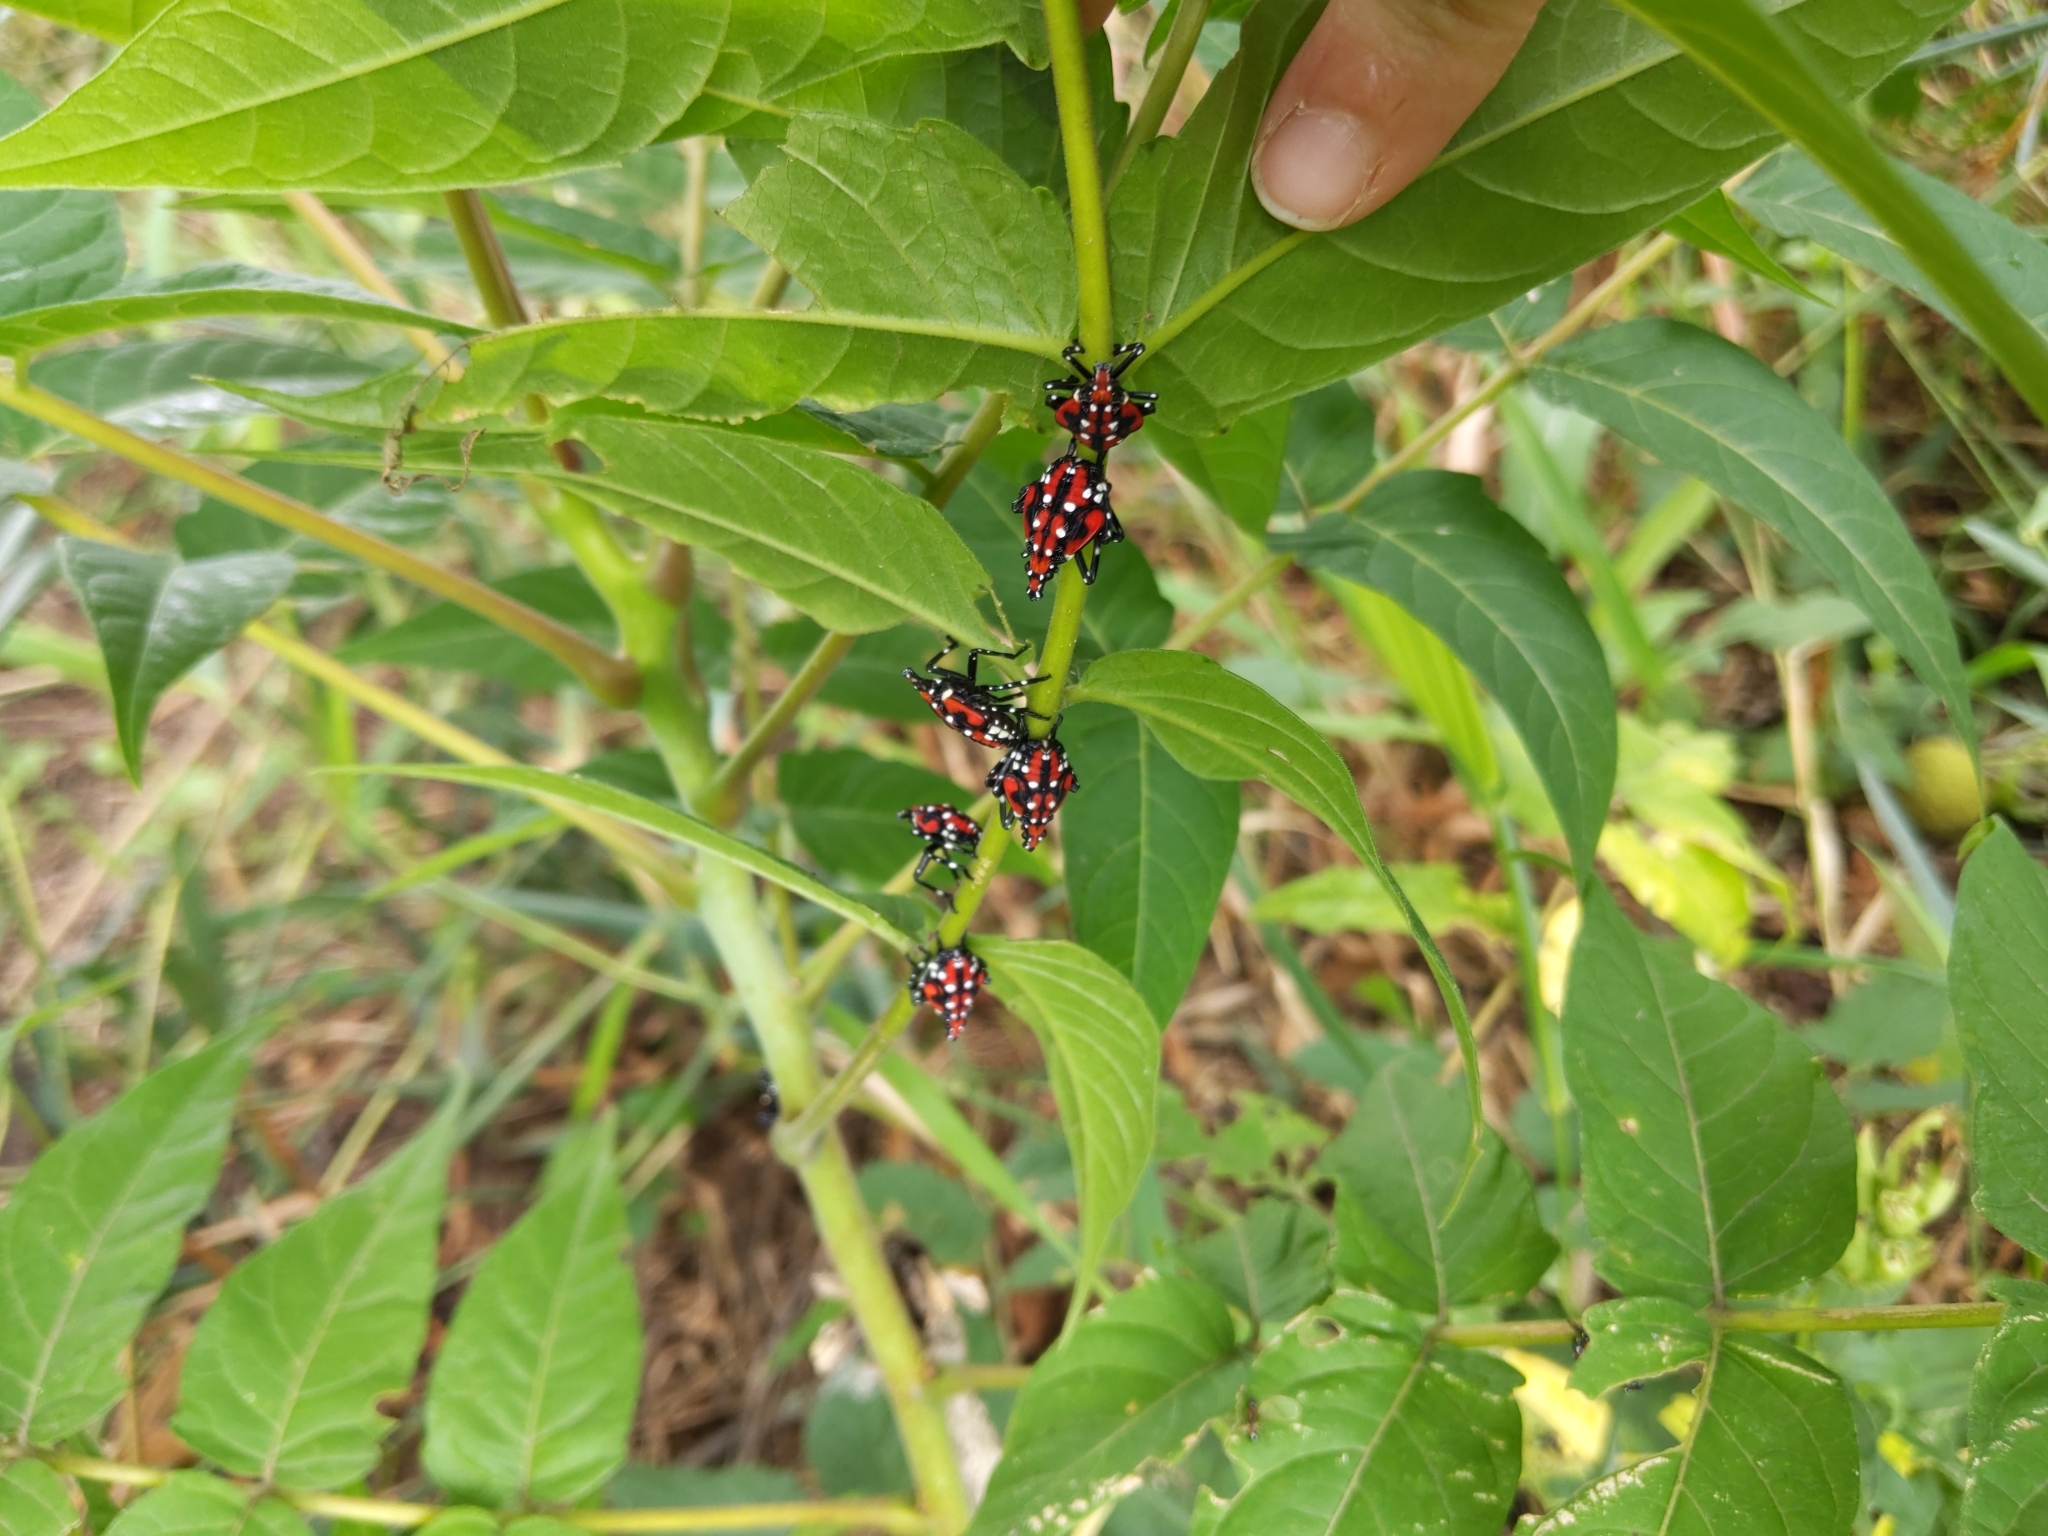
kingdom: Animalia
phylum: Arthropoda
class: Insecta
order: Hemiptera
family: Fulgoridae
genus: Lycorma
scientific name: Lycorma delicatula
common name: Spotted lanternfly
